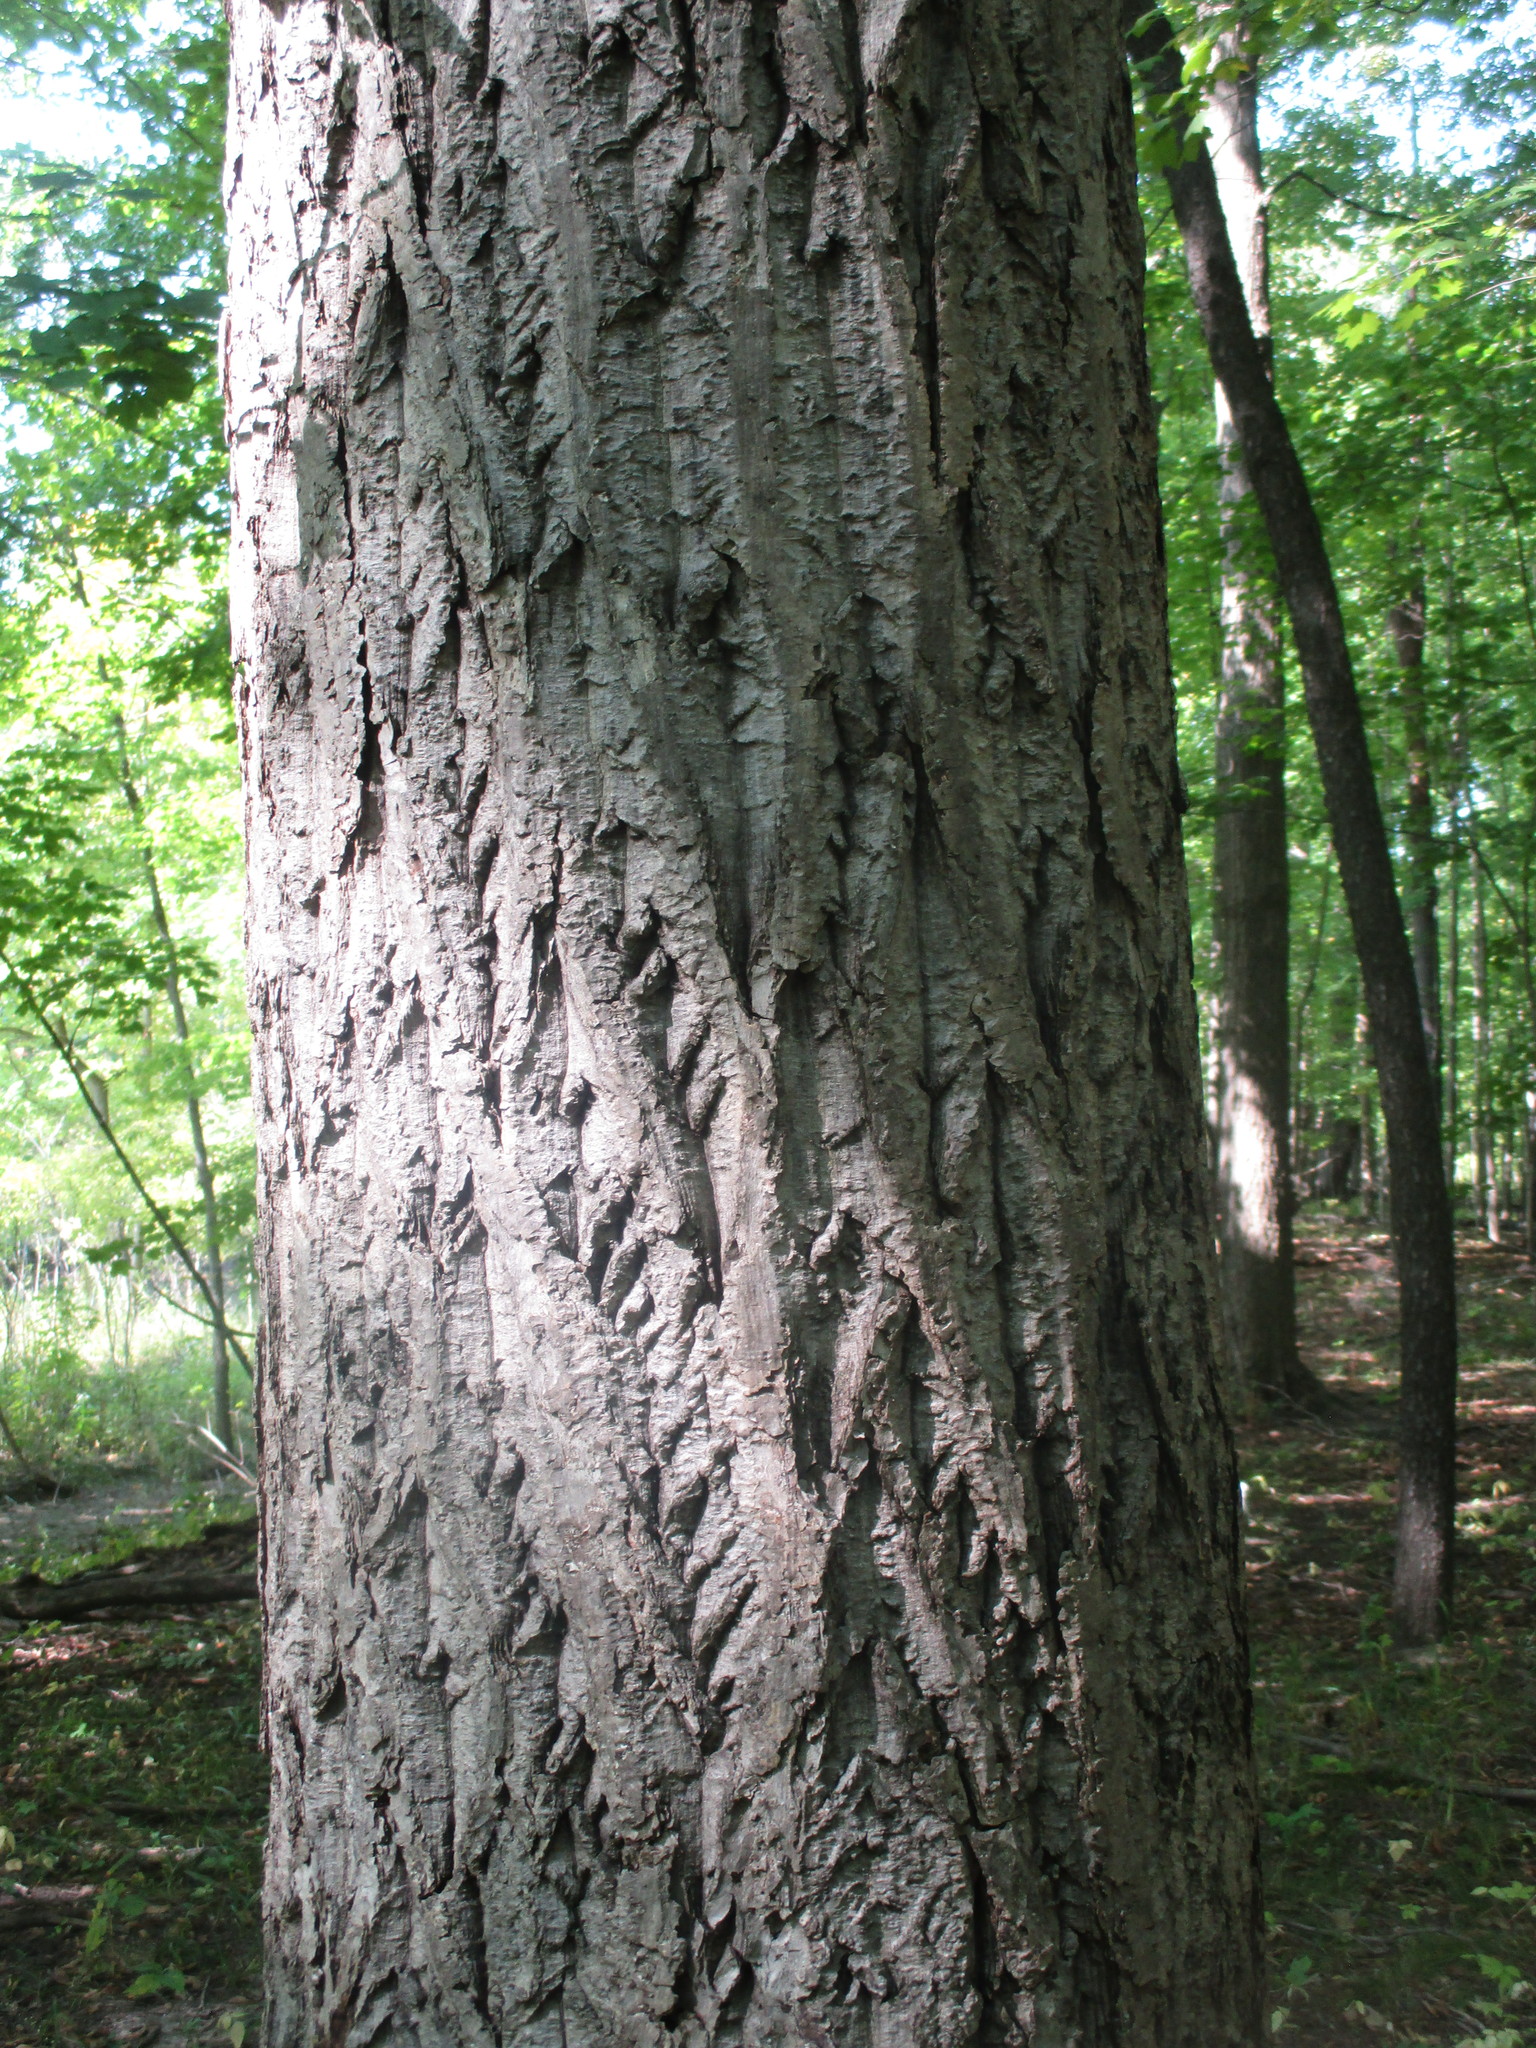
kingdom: Plantae
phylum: Tracheophyta
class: Magnoliopsida
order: Fagales
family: Juglandaceae
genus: Juglans
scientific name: Juglans cinerea
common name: Butternut
